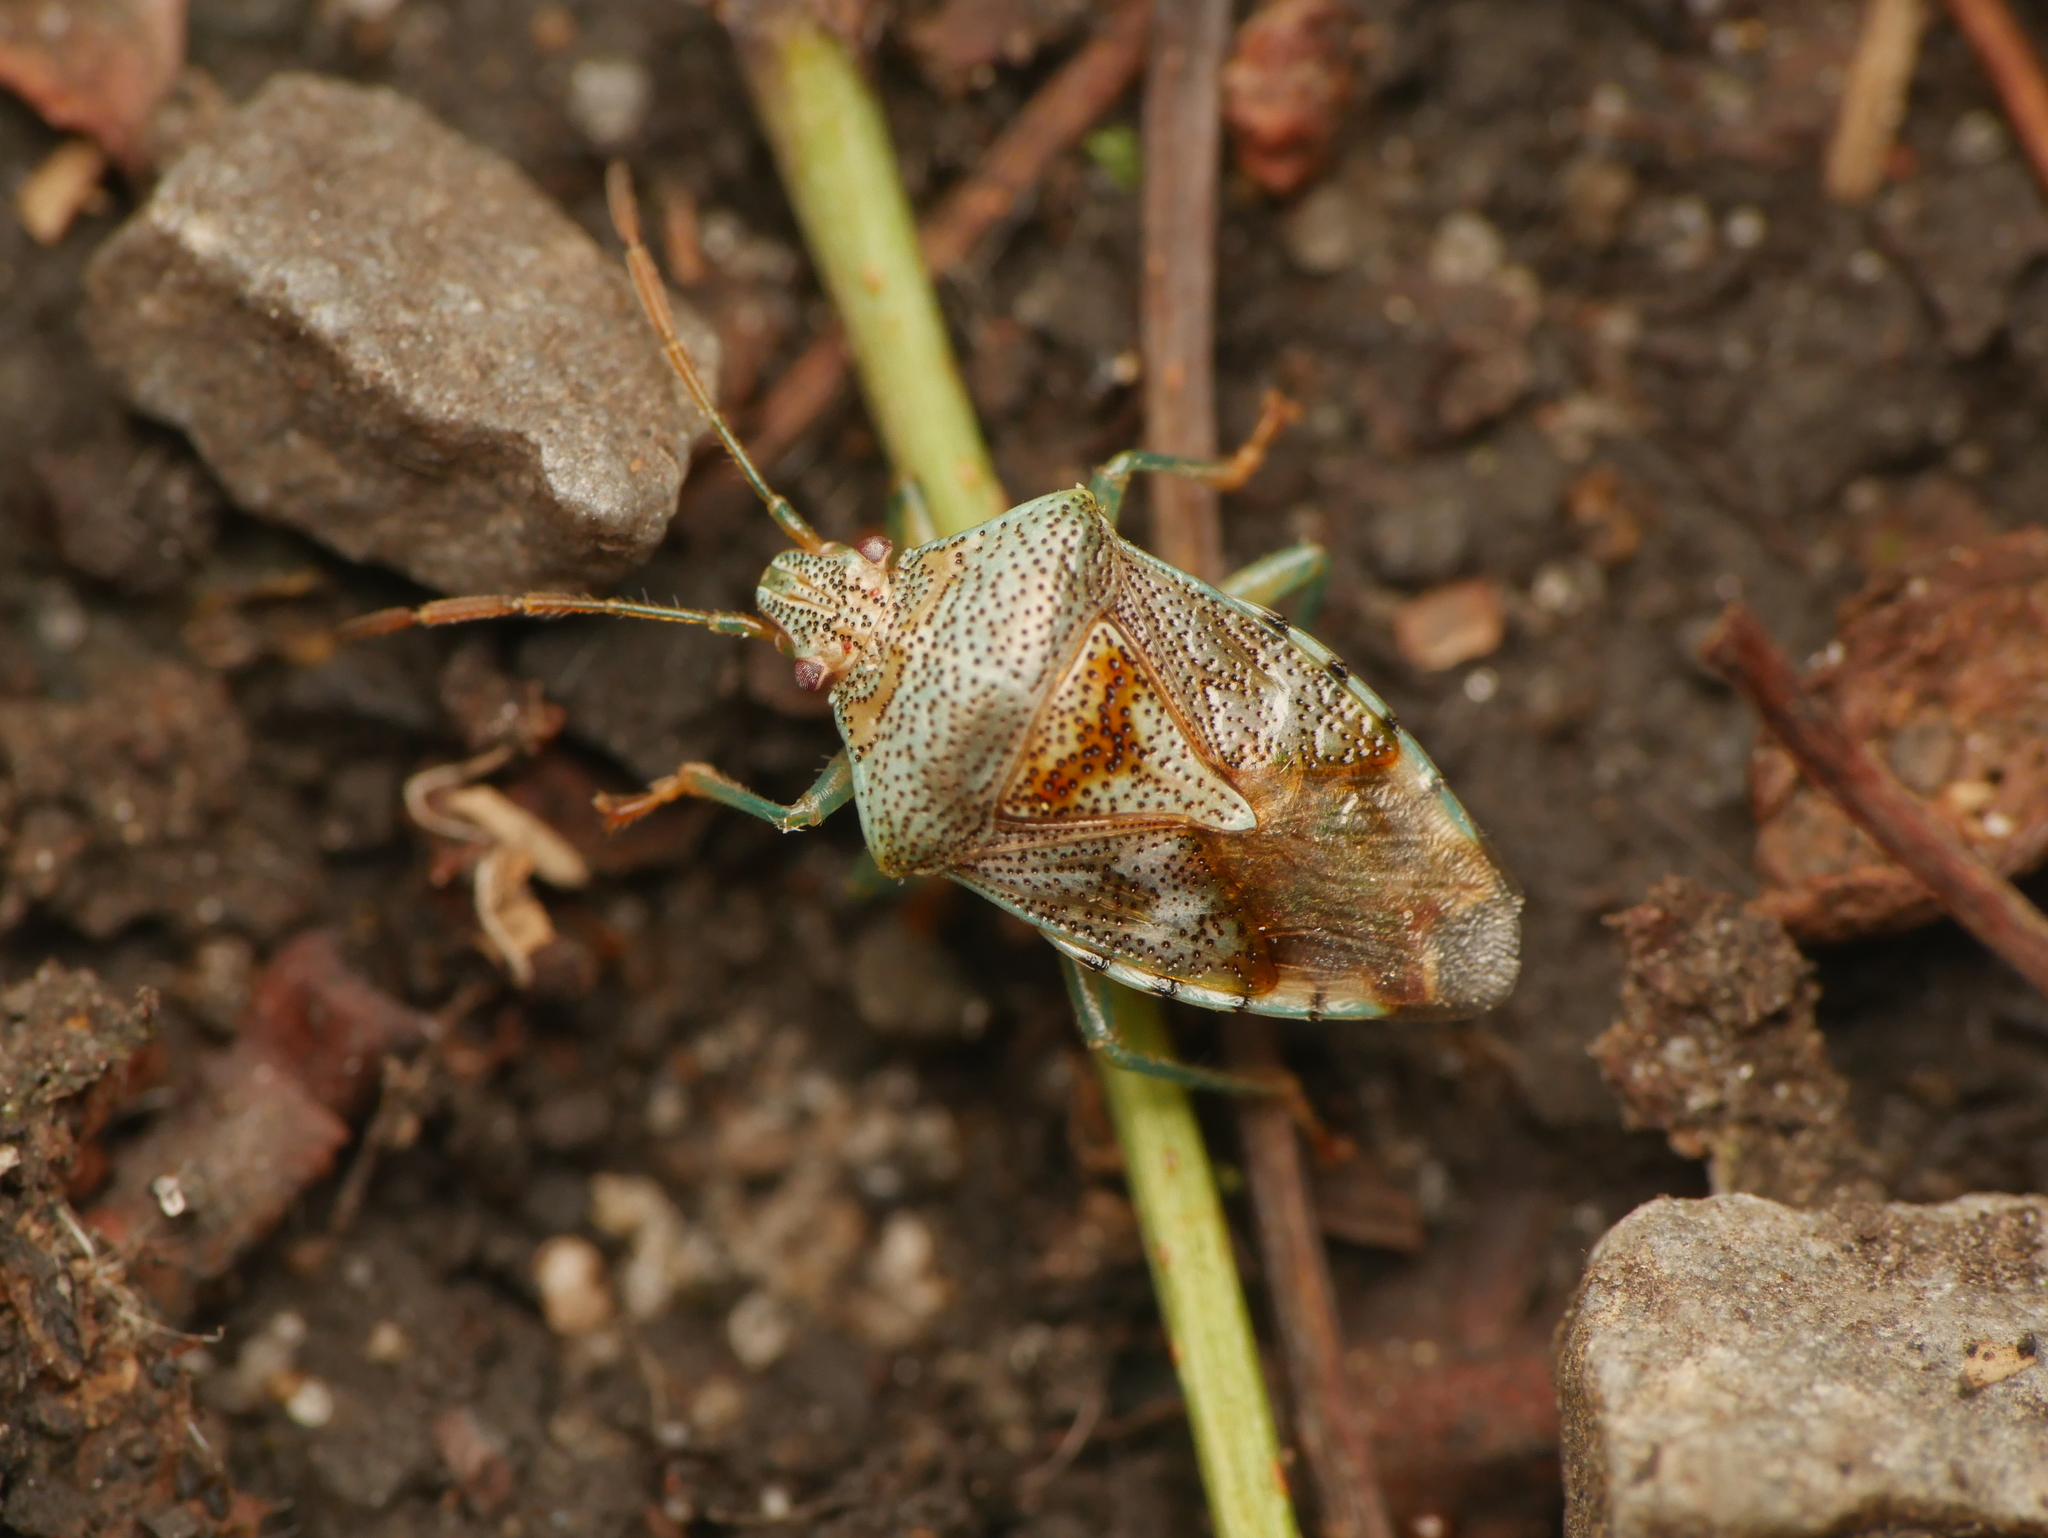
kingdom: Animalia
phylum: Arthropoda
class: Insecta
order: Hemiptera
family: Acanthosomatidae
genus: Elasmucha
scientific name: Elasmucha grisea
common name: Parent bug
